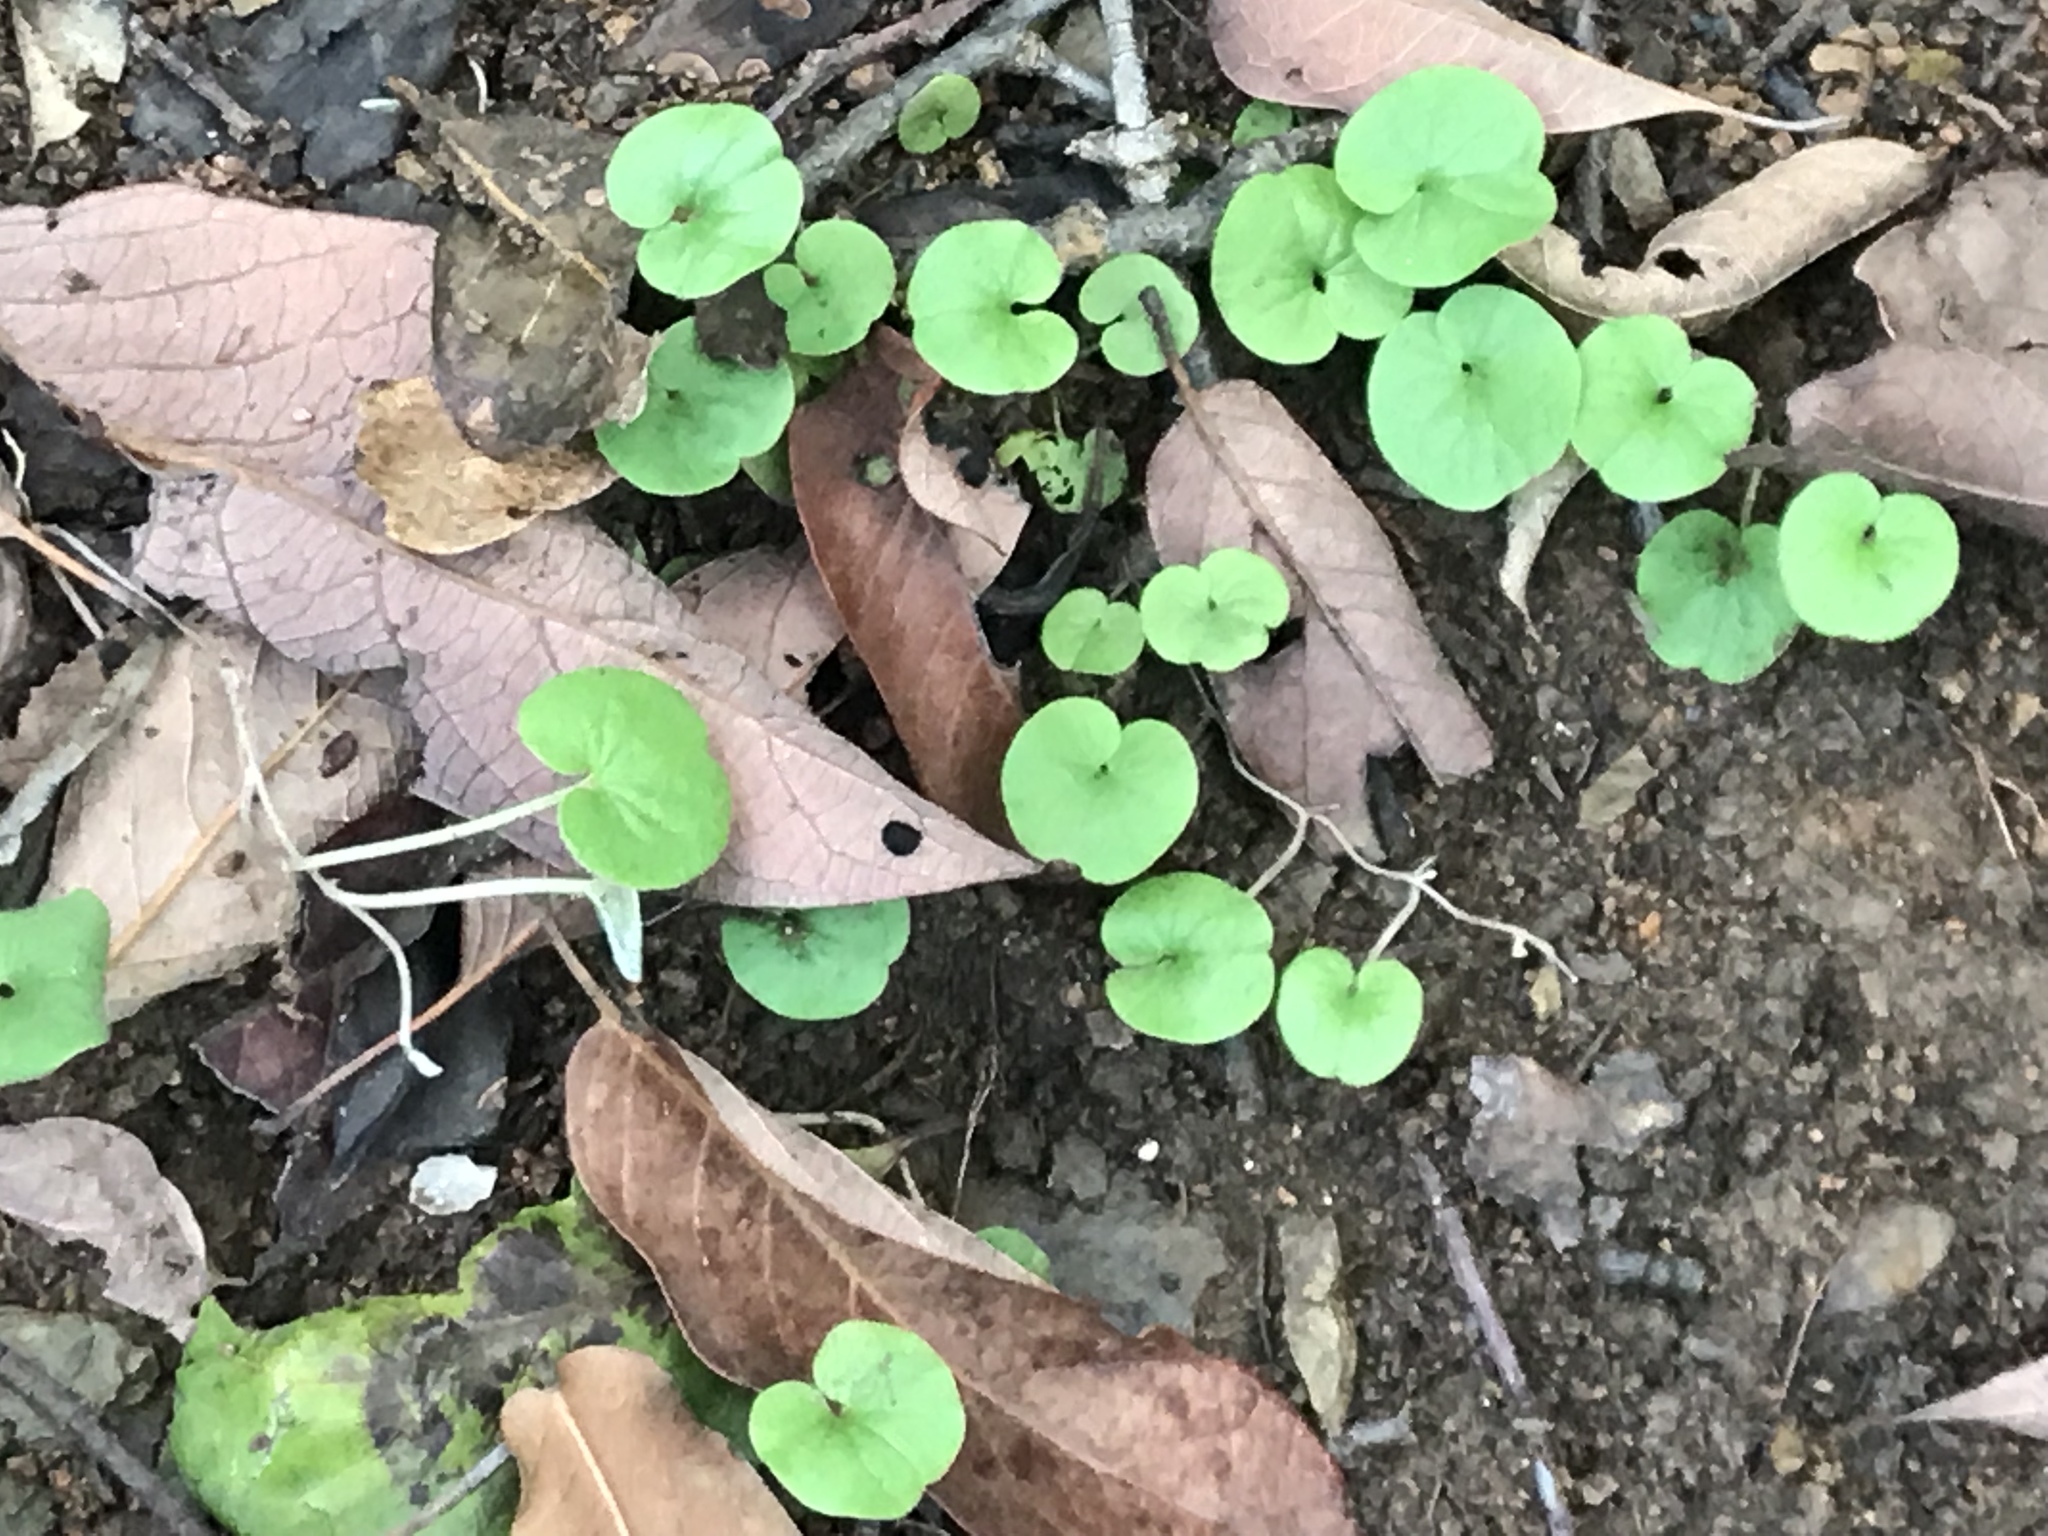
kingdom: Plantae
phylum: Tracheophyta
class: Magnoliopsida
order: Solanales
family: Convolvulaceae
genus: Dichondra
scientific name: Dichondra repens
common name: Kidneyweed
